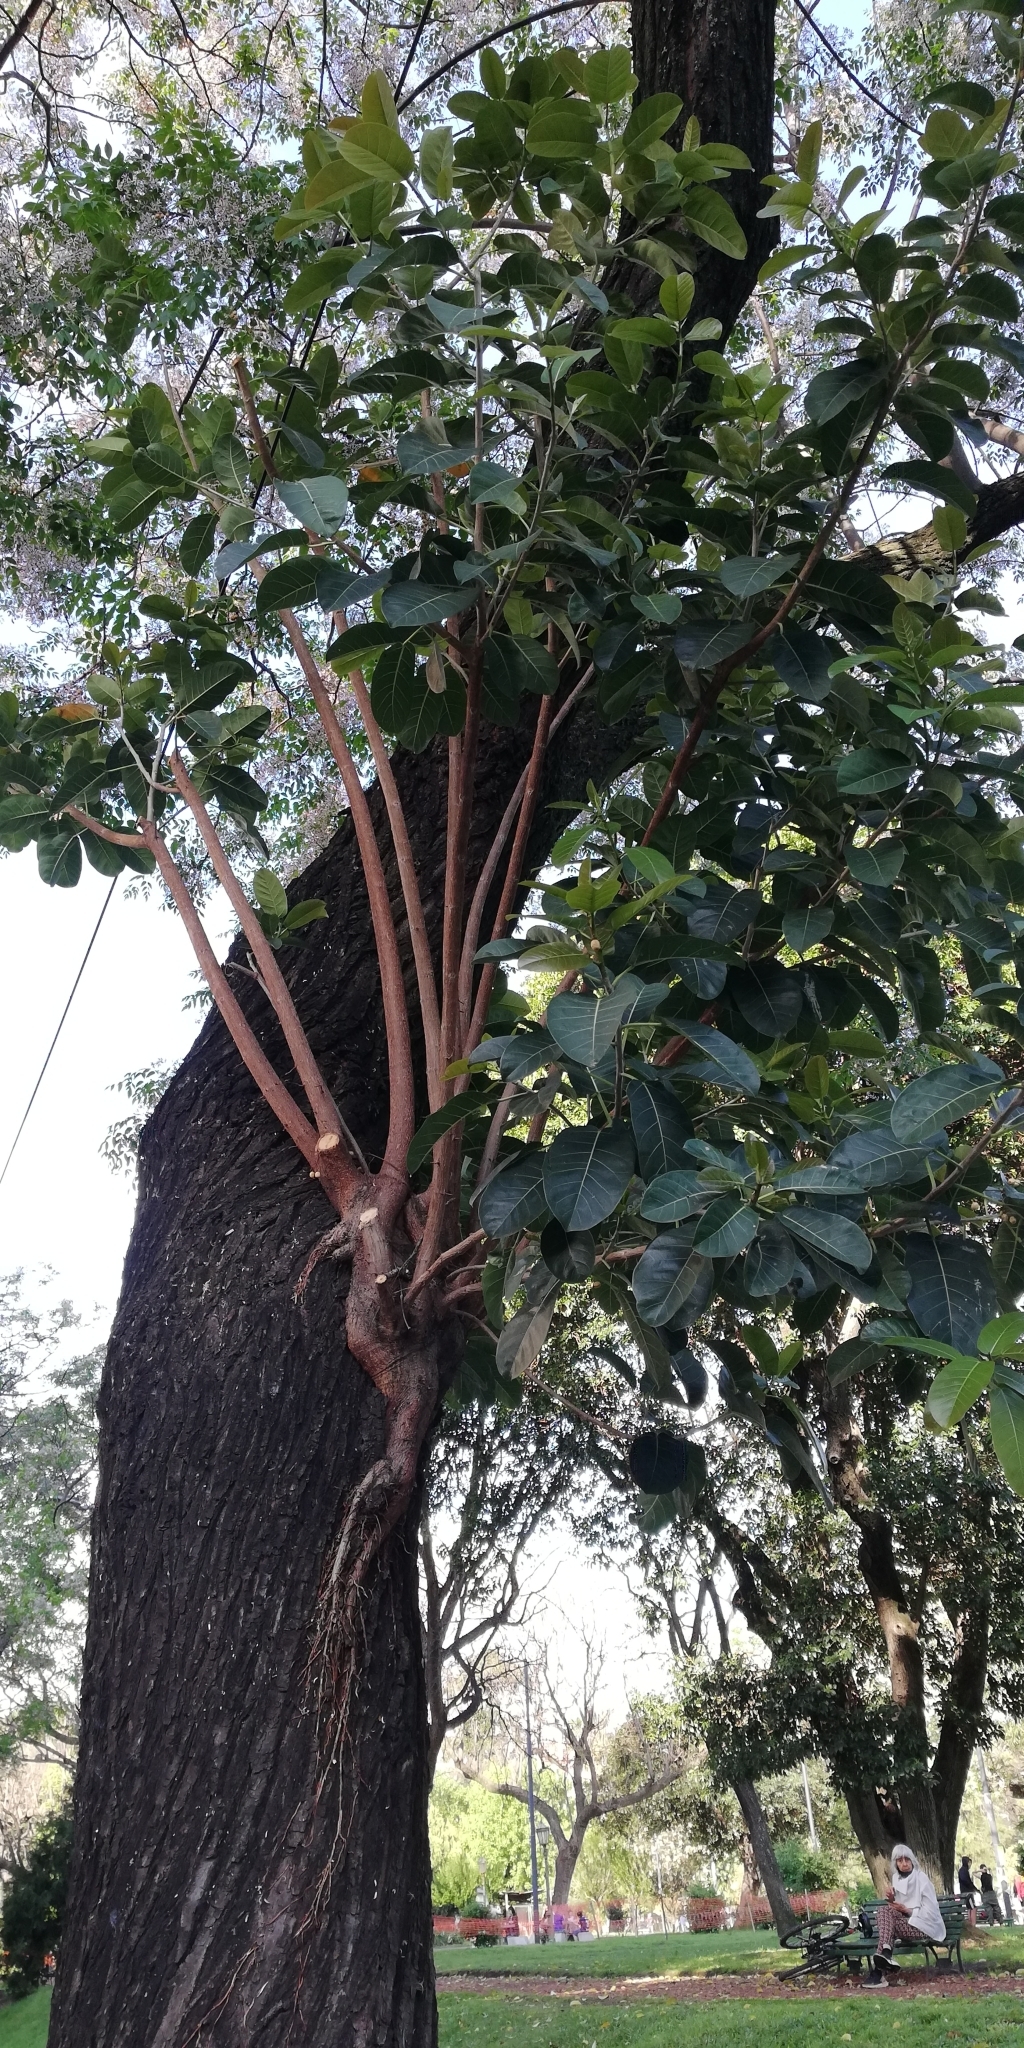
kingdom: Plantae
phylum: Tracheophyta
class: Magnoliopsida
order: Rosales
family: Moraceae
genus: Ficus
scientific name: Ficus luschnathiana
